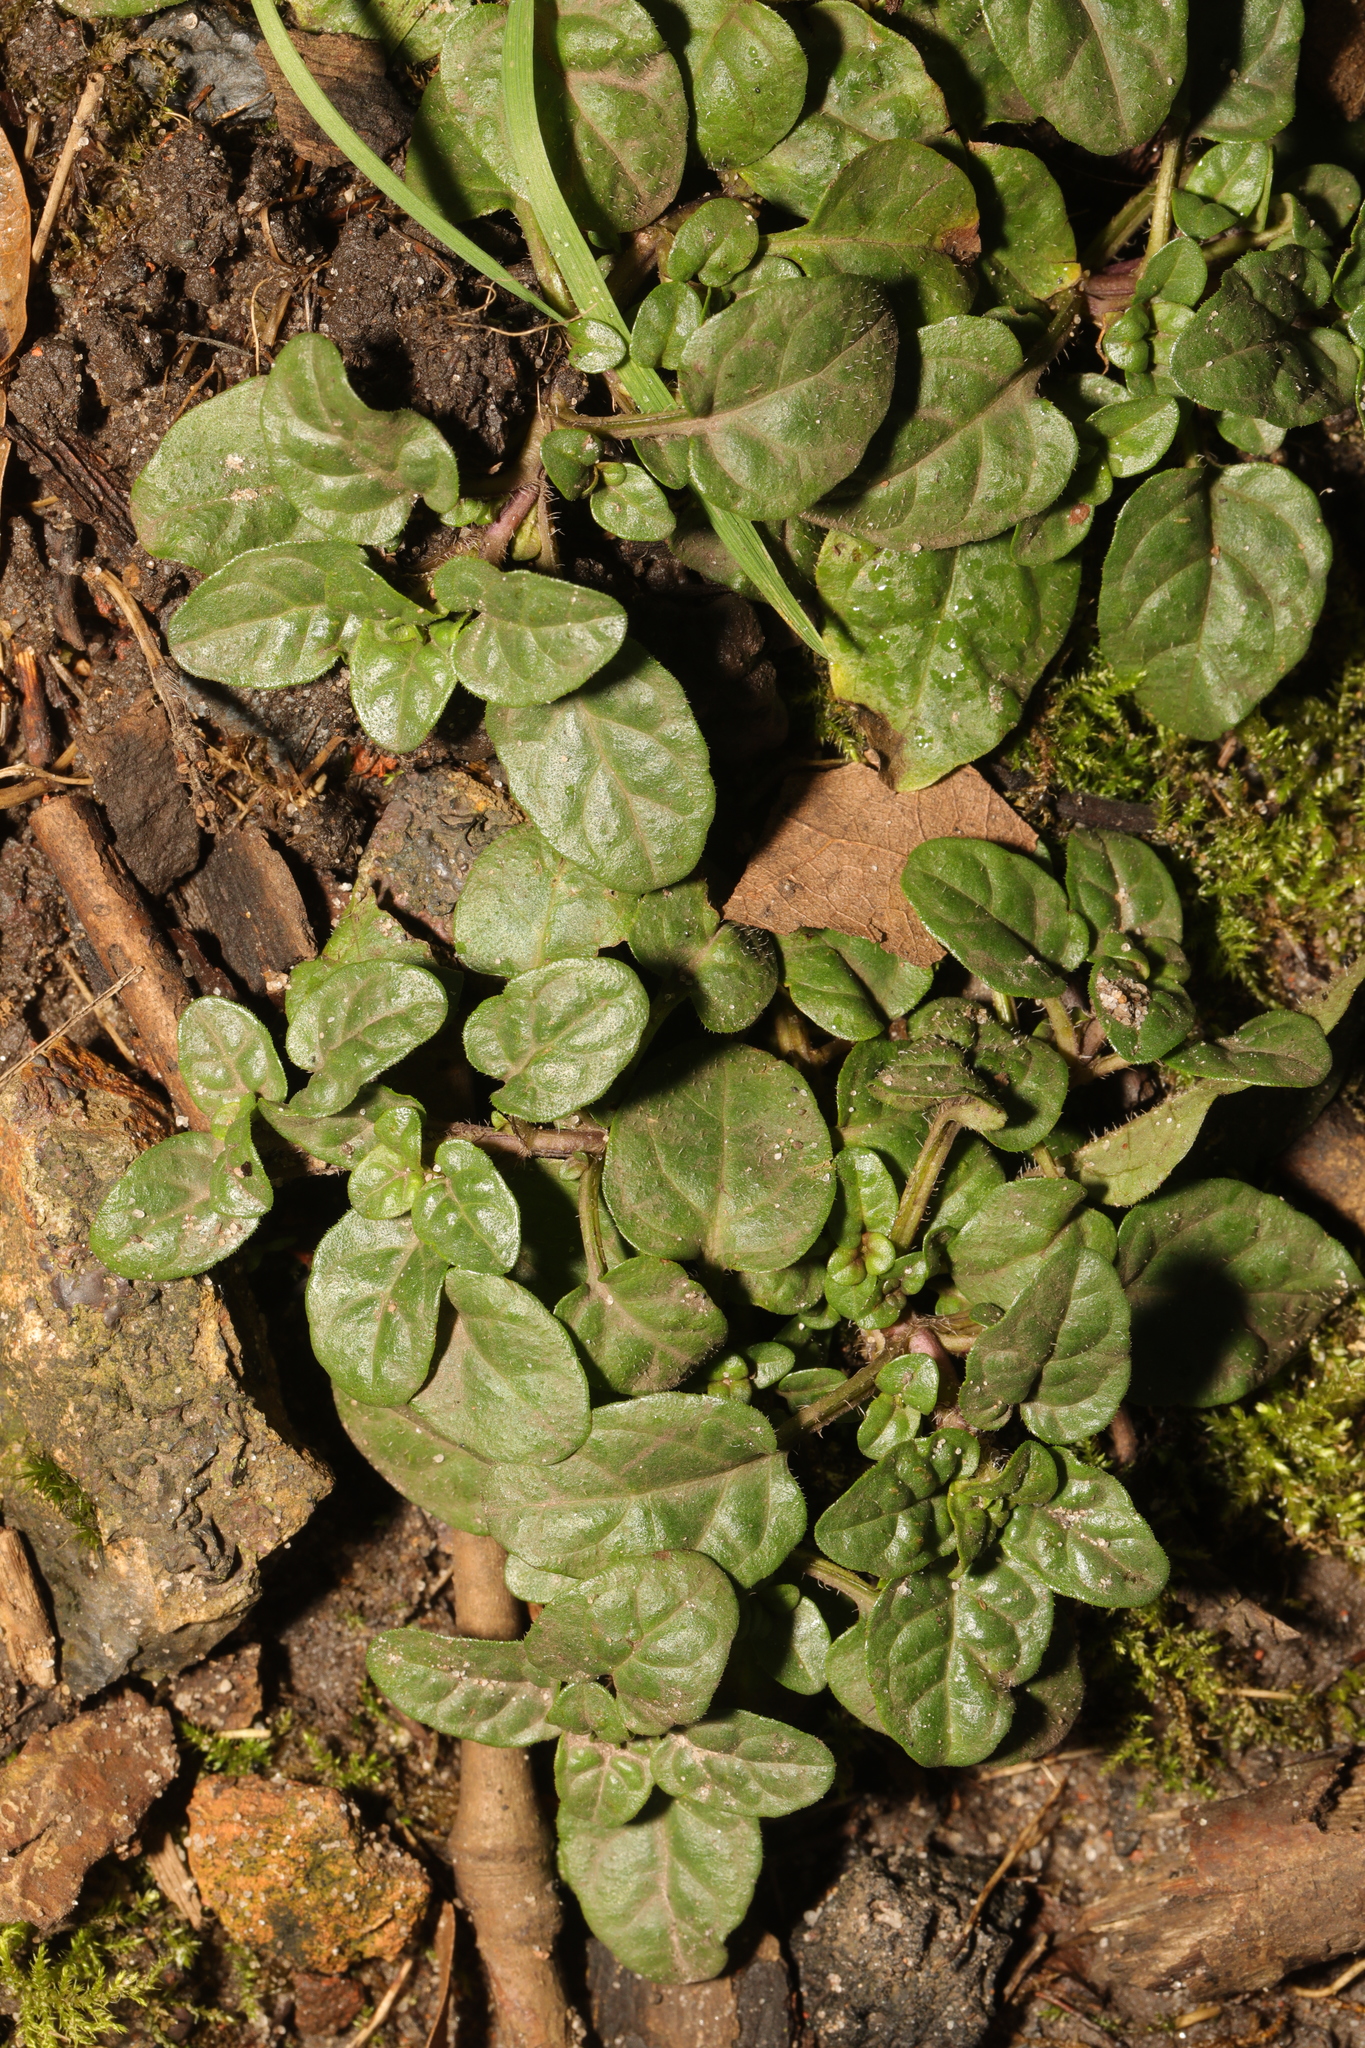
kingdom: Plantae
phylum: Tracheophyta
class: Magnoliopsida
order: Lamiales
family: Lamiaceae
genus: Prunella
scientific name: Prunella vulgaris
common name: Heal-all
